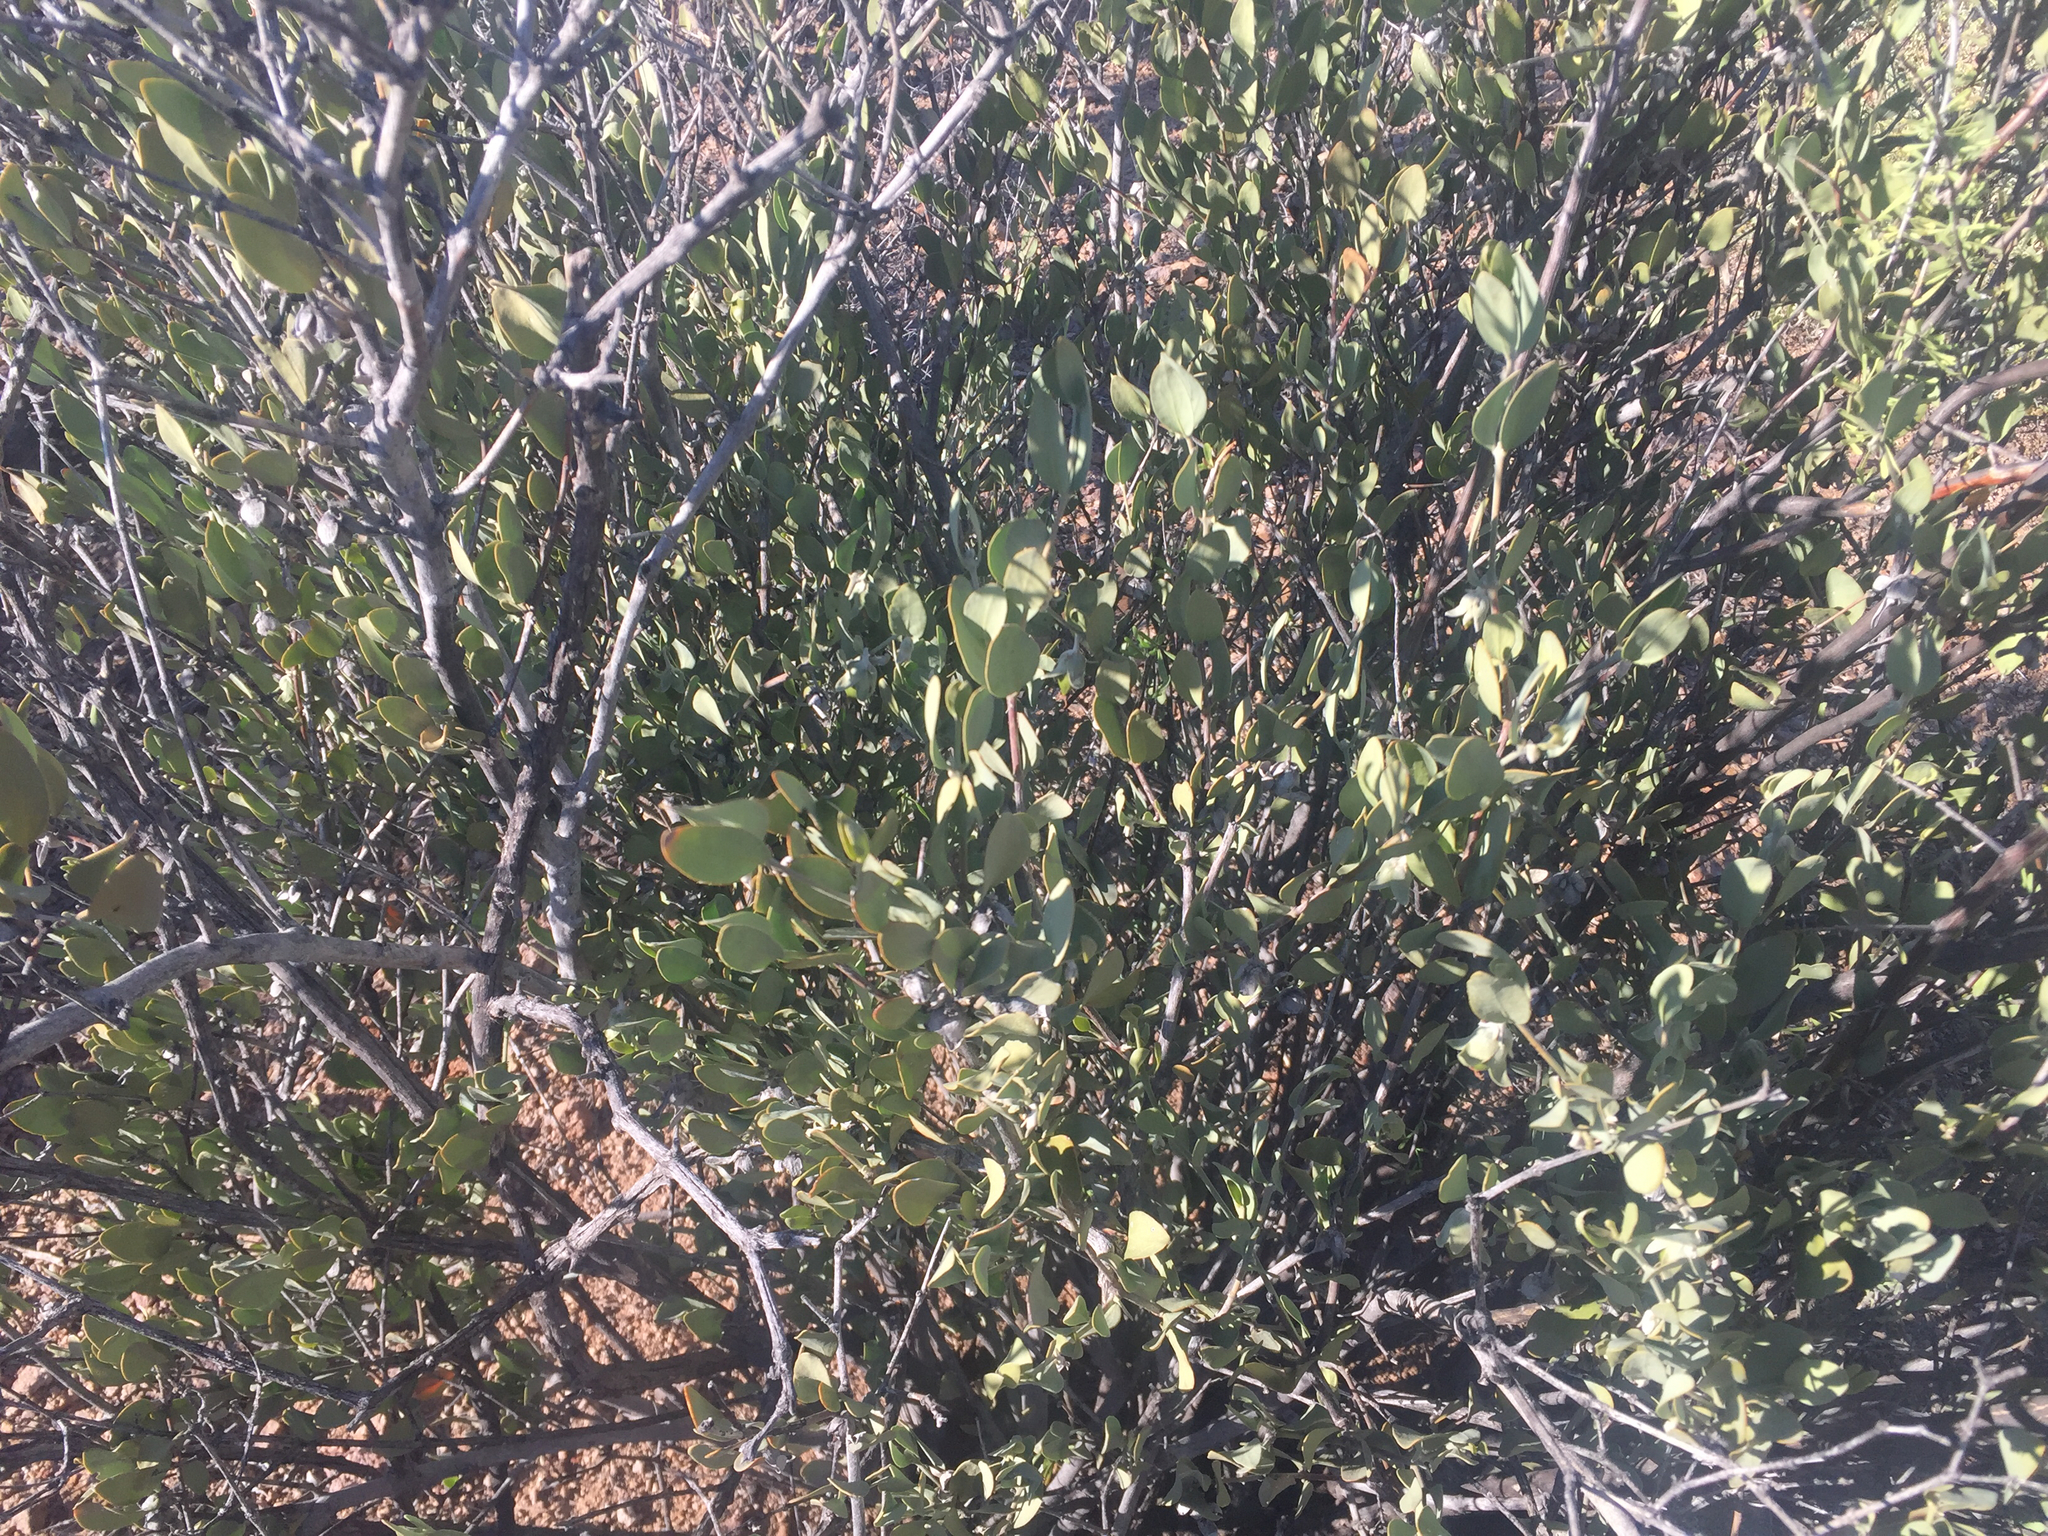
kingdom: Plantae
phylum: Tracheophyta
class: Magnoliopsida
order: Caryophyllales
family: Simmondsiaceae
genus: Simmondsia
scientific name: Simmondsia chinensis
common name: Jojoba
